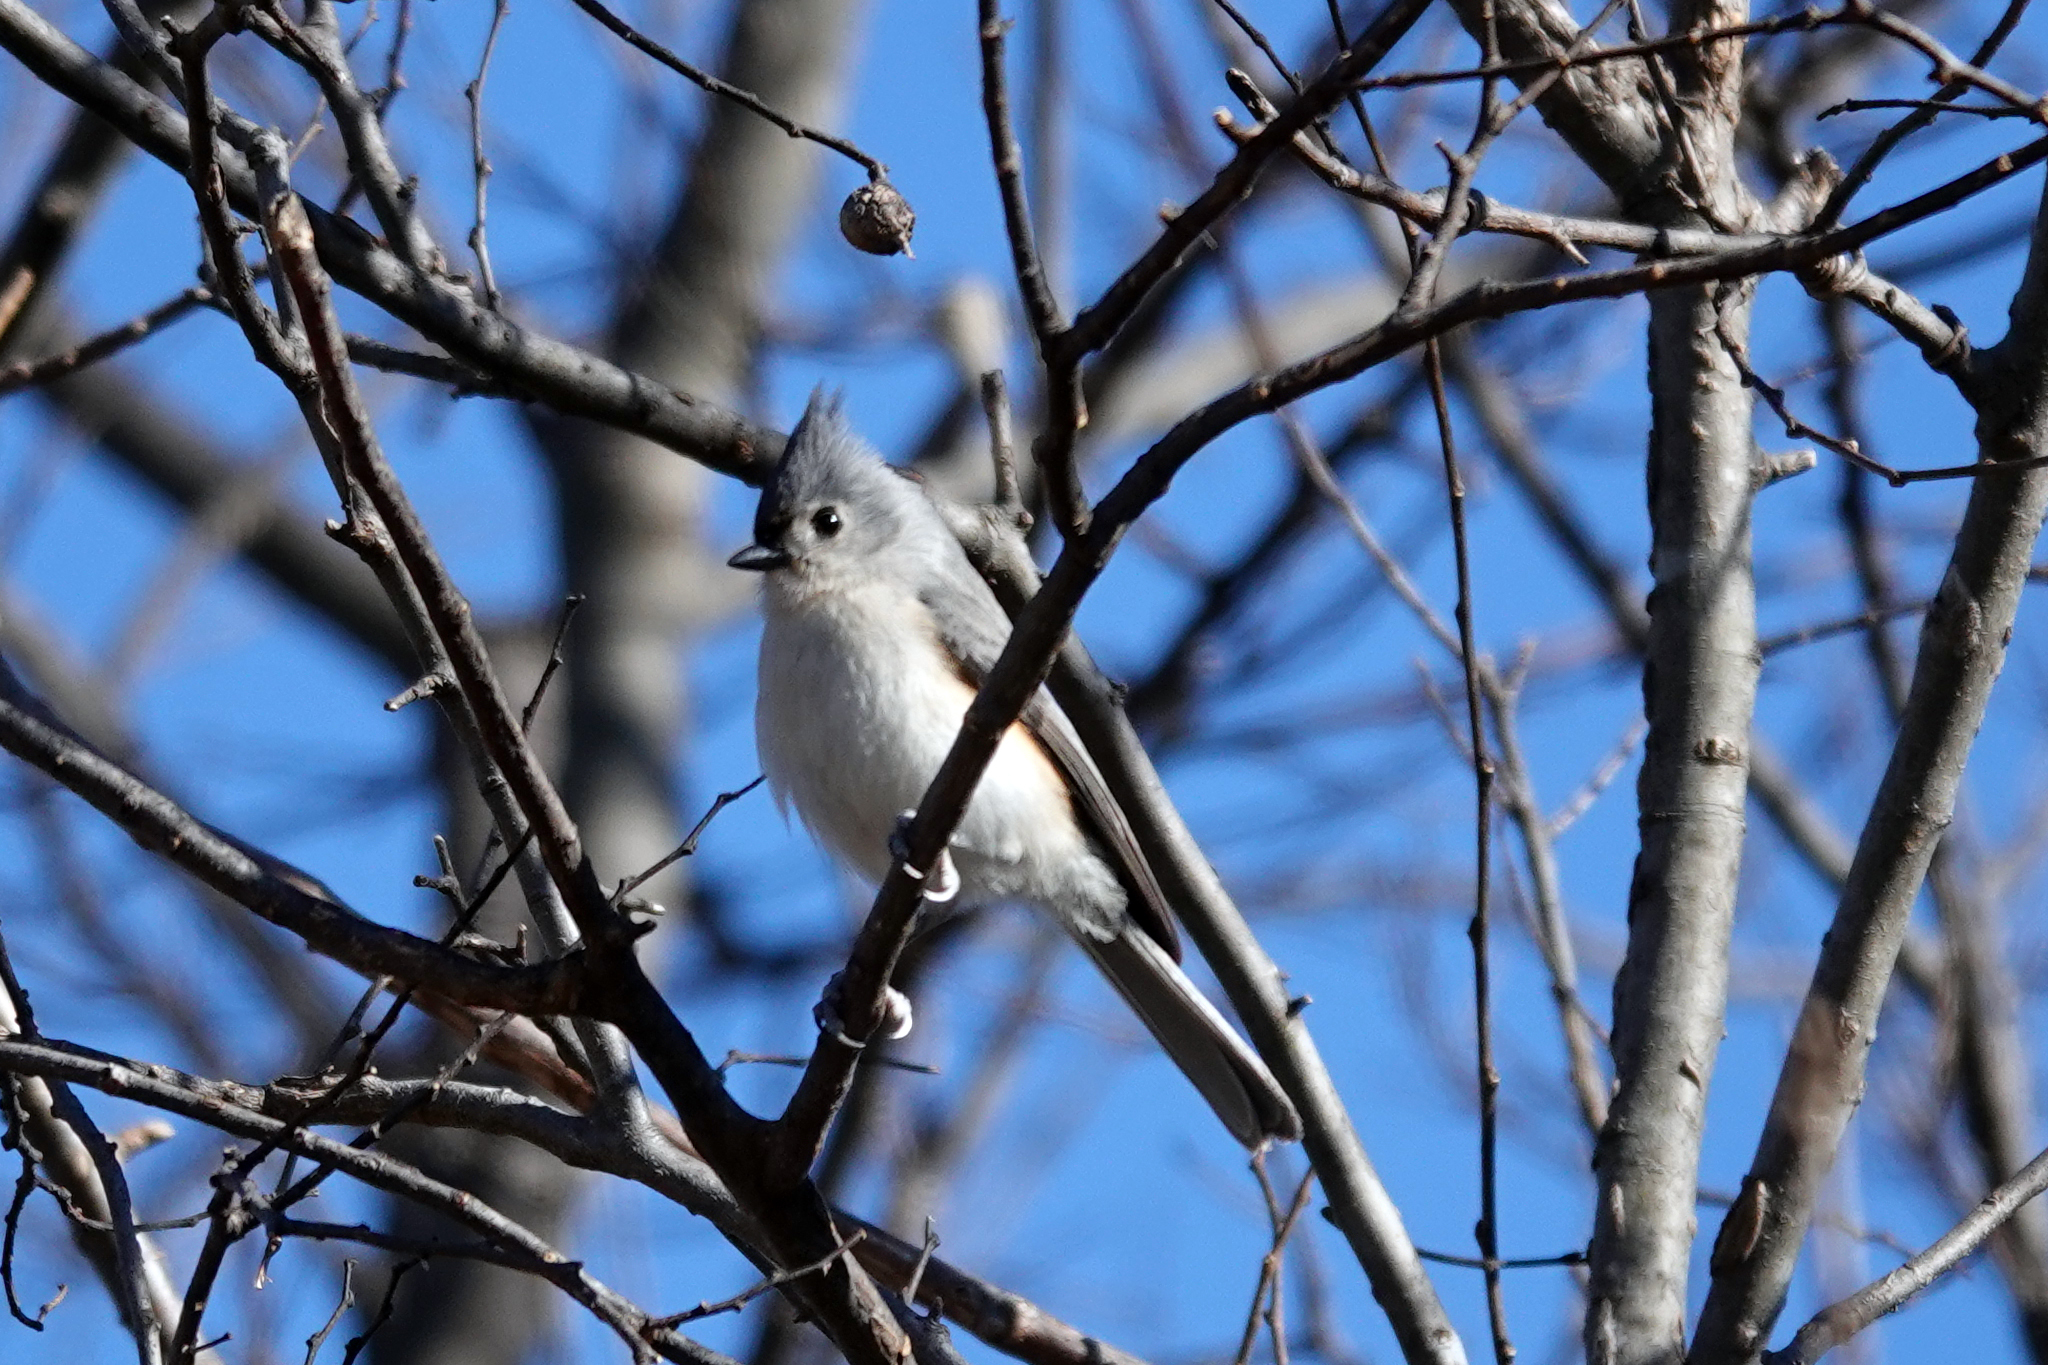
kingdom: Animalia
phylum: Chordata
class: Aves
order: Passeriformes
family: Paridae
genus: Baeolophus
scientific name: Baeolophus bicolor
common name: Tufted titmouse
